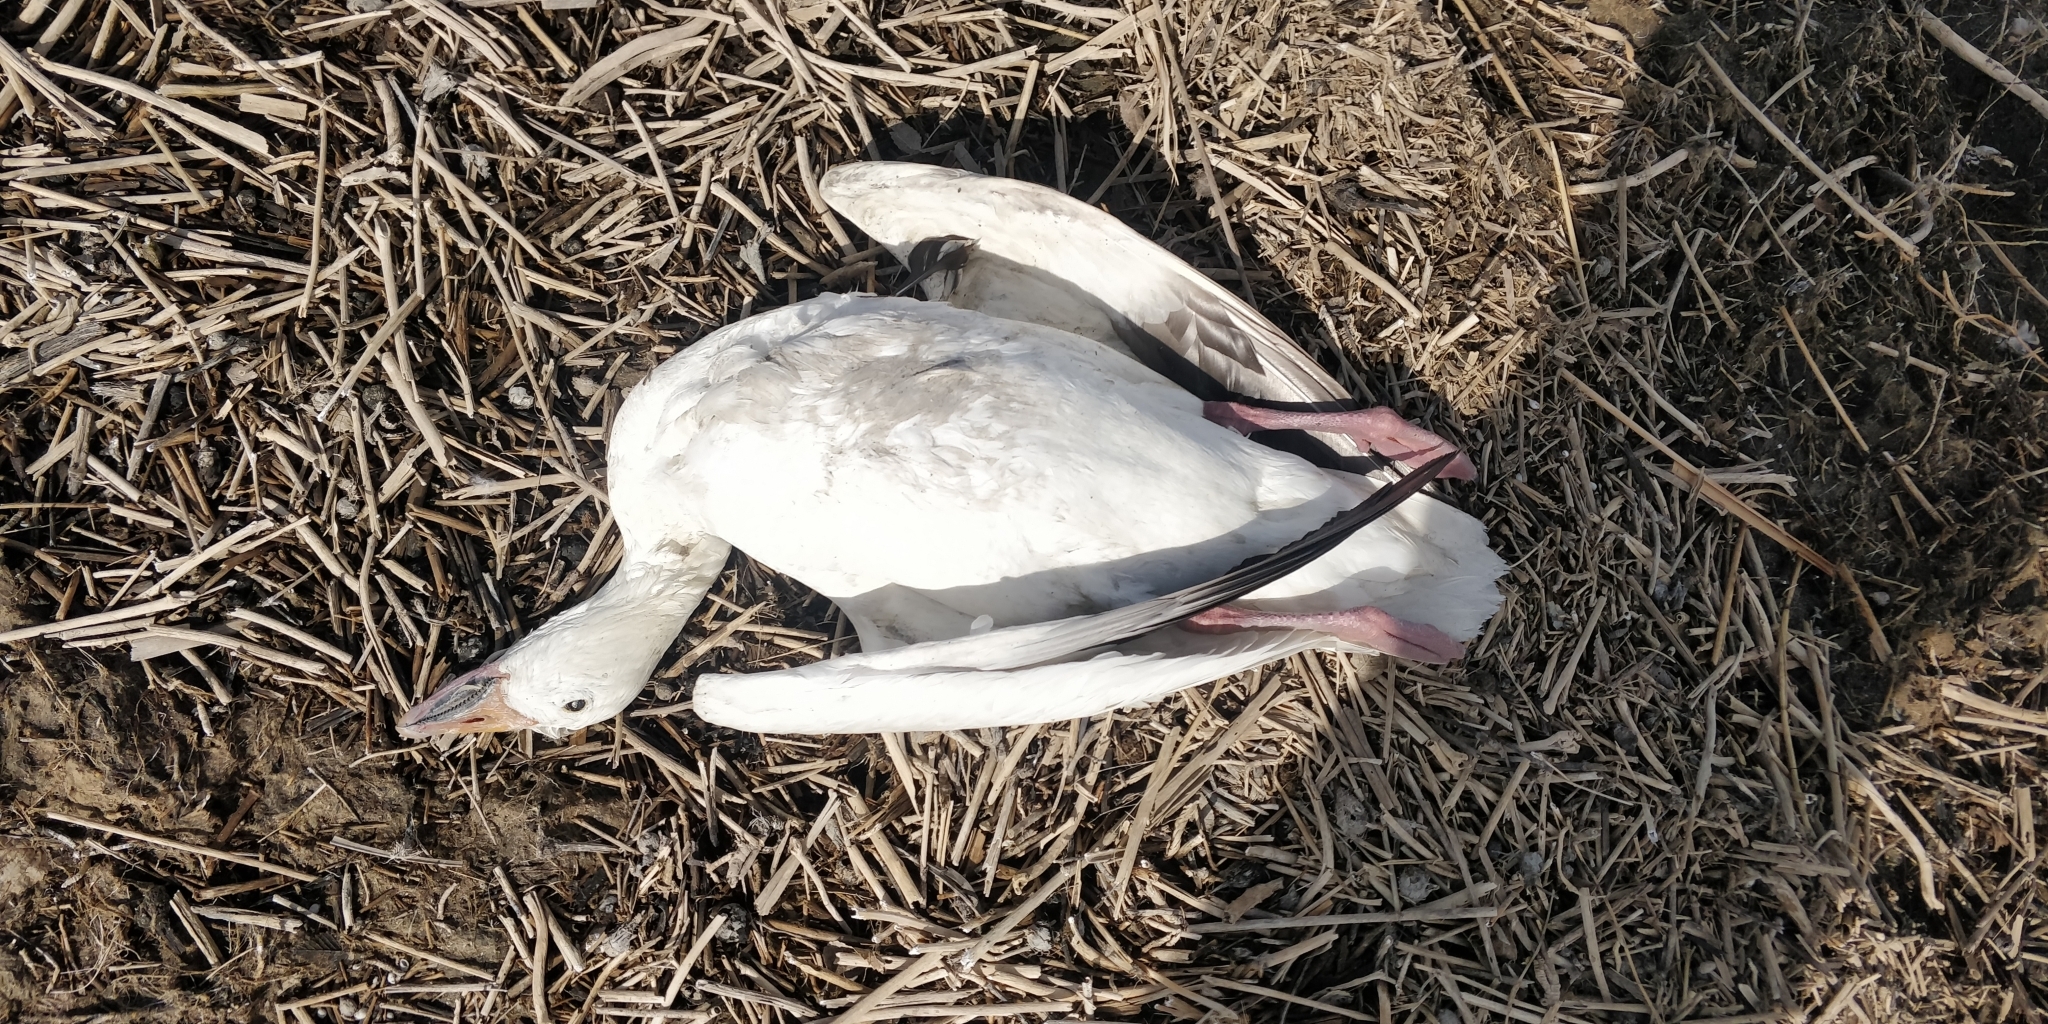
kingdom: Animalia
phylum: Chordata
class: Aves
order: Anseriformes
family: Anatidae
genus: Anser
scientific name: Anser caerulescens
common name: Snow goose
